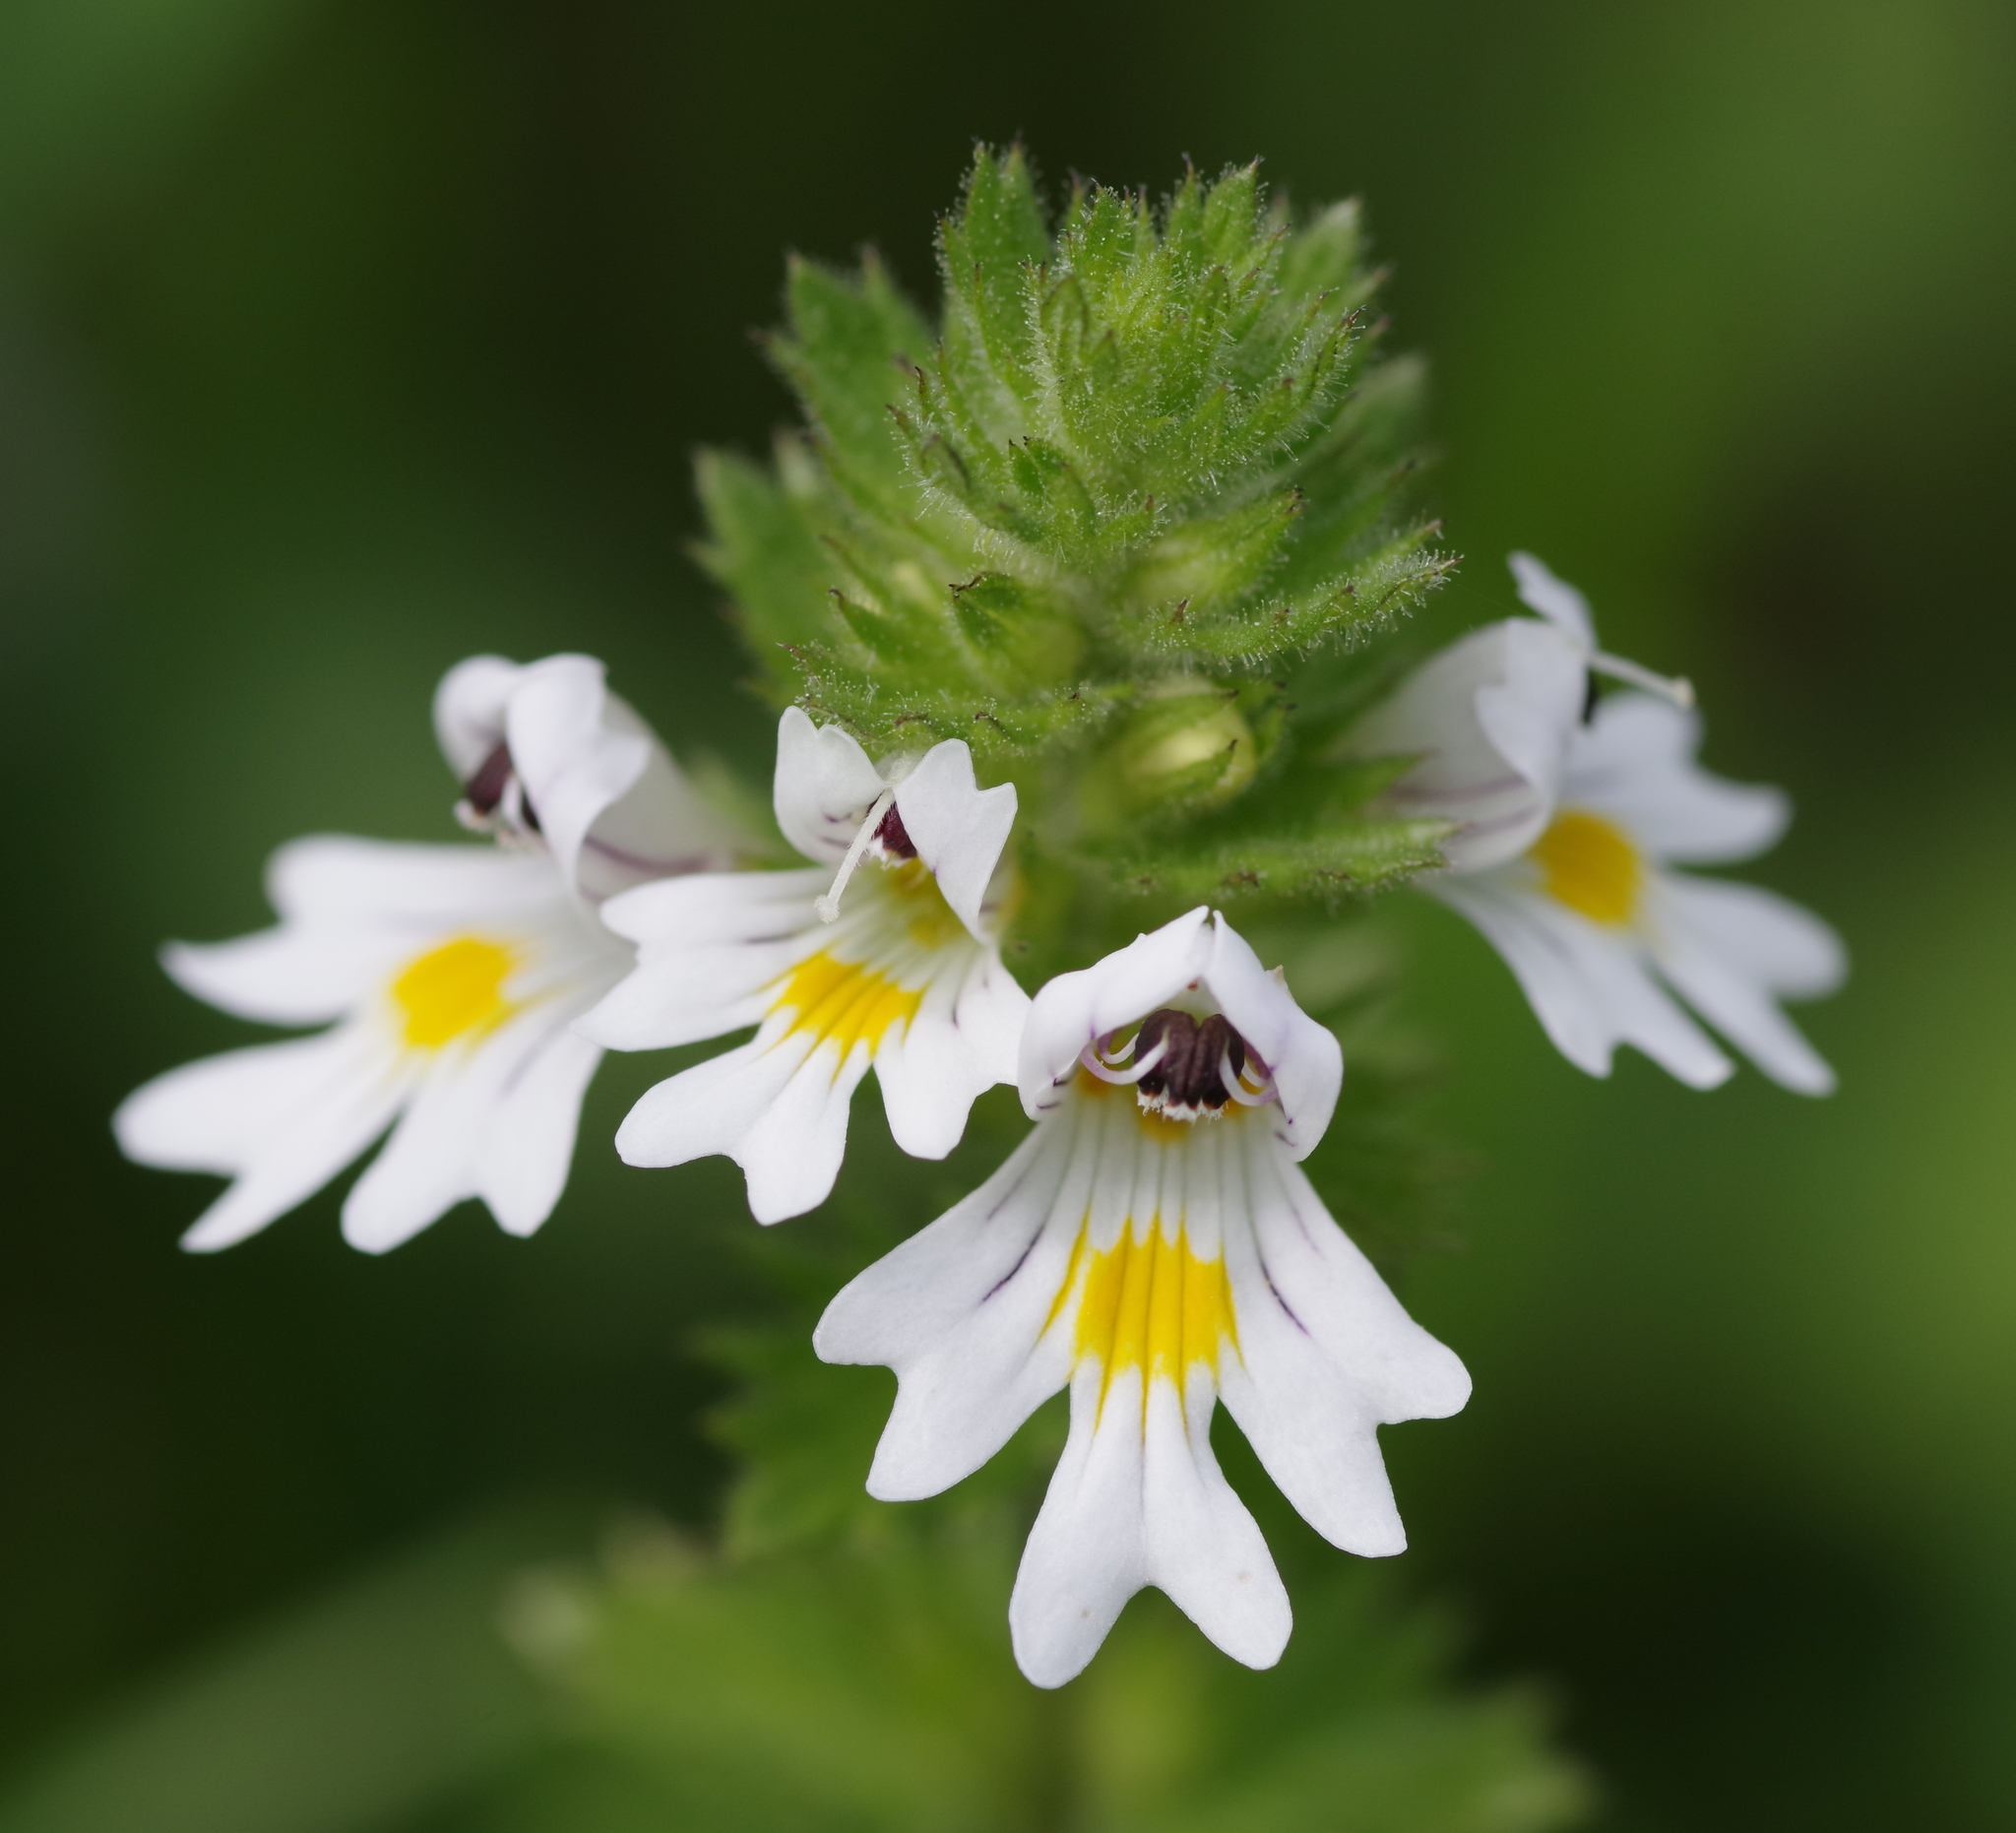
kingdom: Plantae
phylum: Tracheophyta
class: Magnoliopsida
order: Lamiales
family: Orobanchaceae
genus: Euphrasia
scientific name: Euphrasia officinalis
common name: Eyebright
